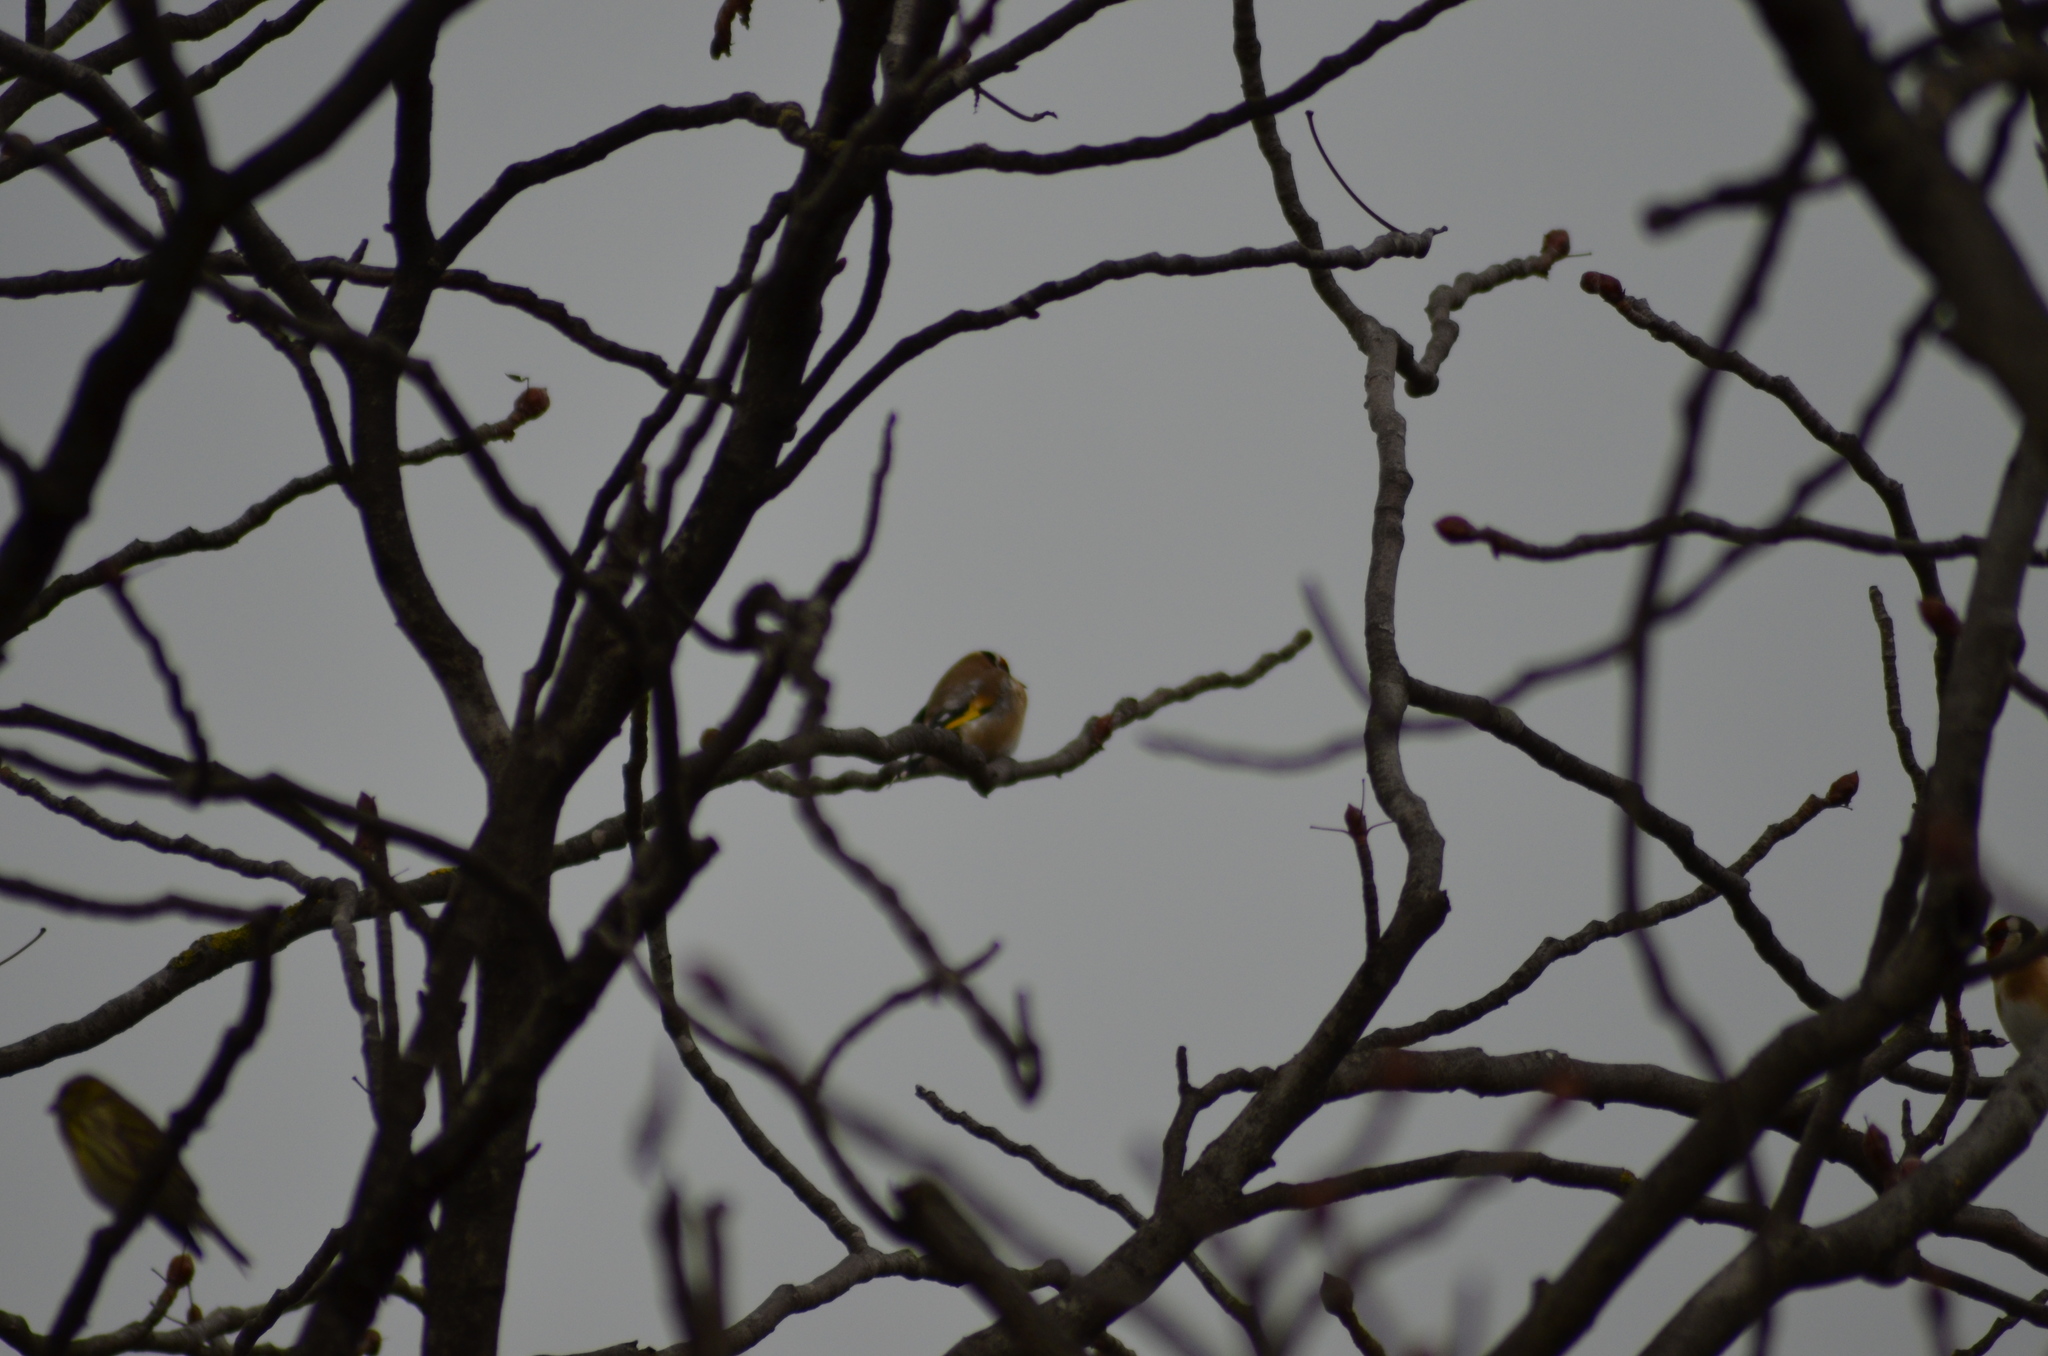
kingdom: Animalia
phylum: Chordata
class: Aves
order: Passeriformes
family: Fringillidae
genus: Carduelis
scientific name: Carduelis carduelis
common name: European goldfinch
